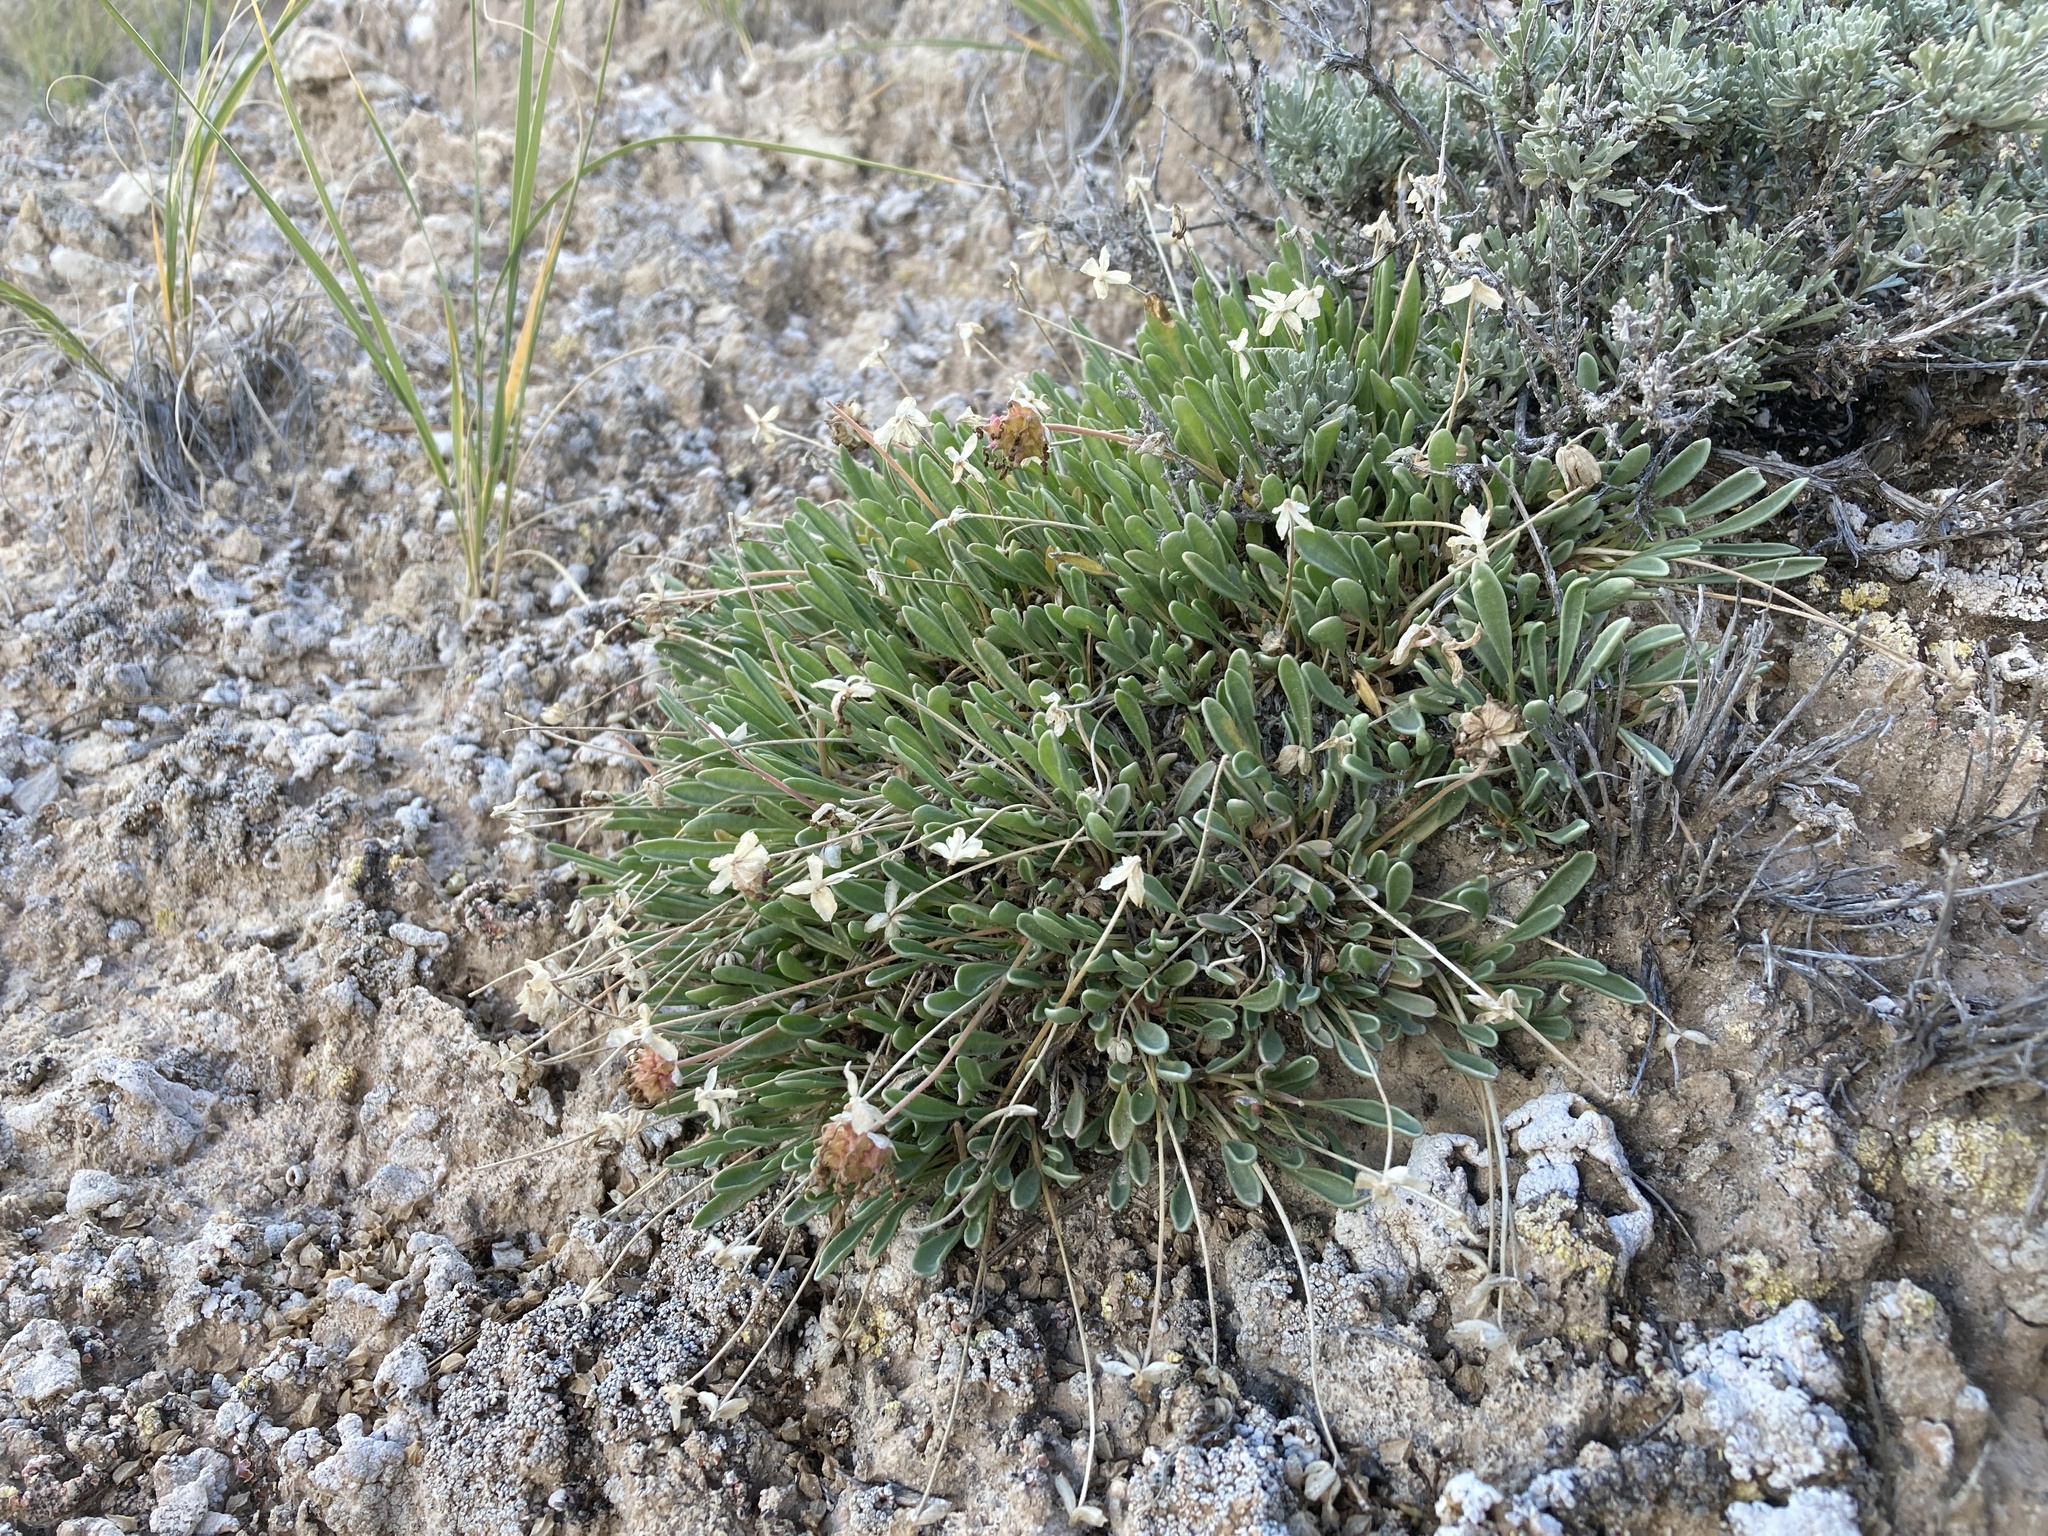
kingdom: Plantae
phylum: Tracheophyta
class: Magnoliopsida
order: Caryophyllales
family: Nyctaginaceae
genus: Abronia
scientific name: Abronia bigelovii
